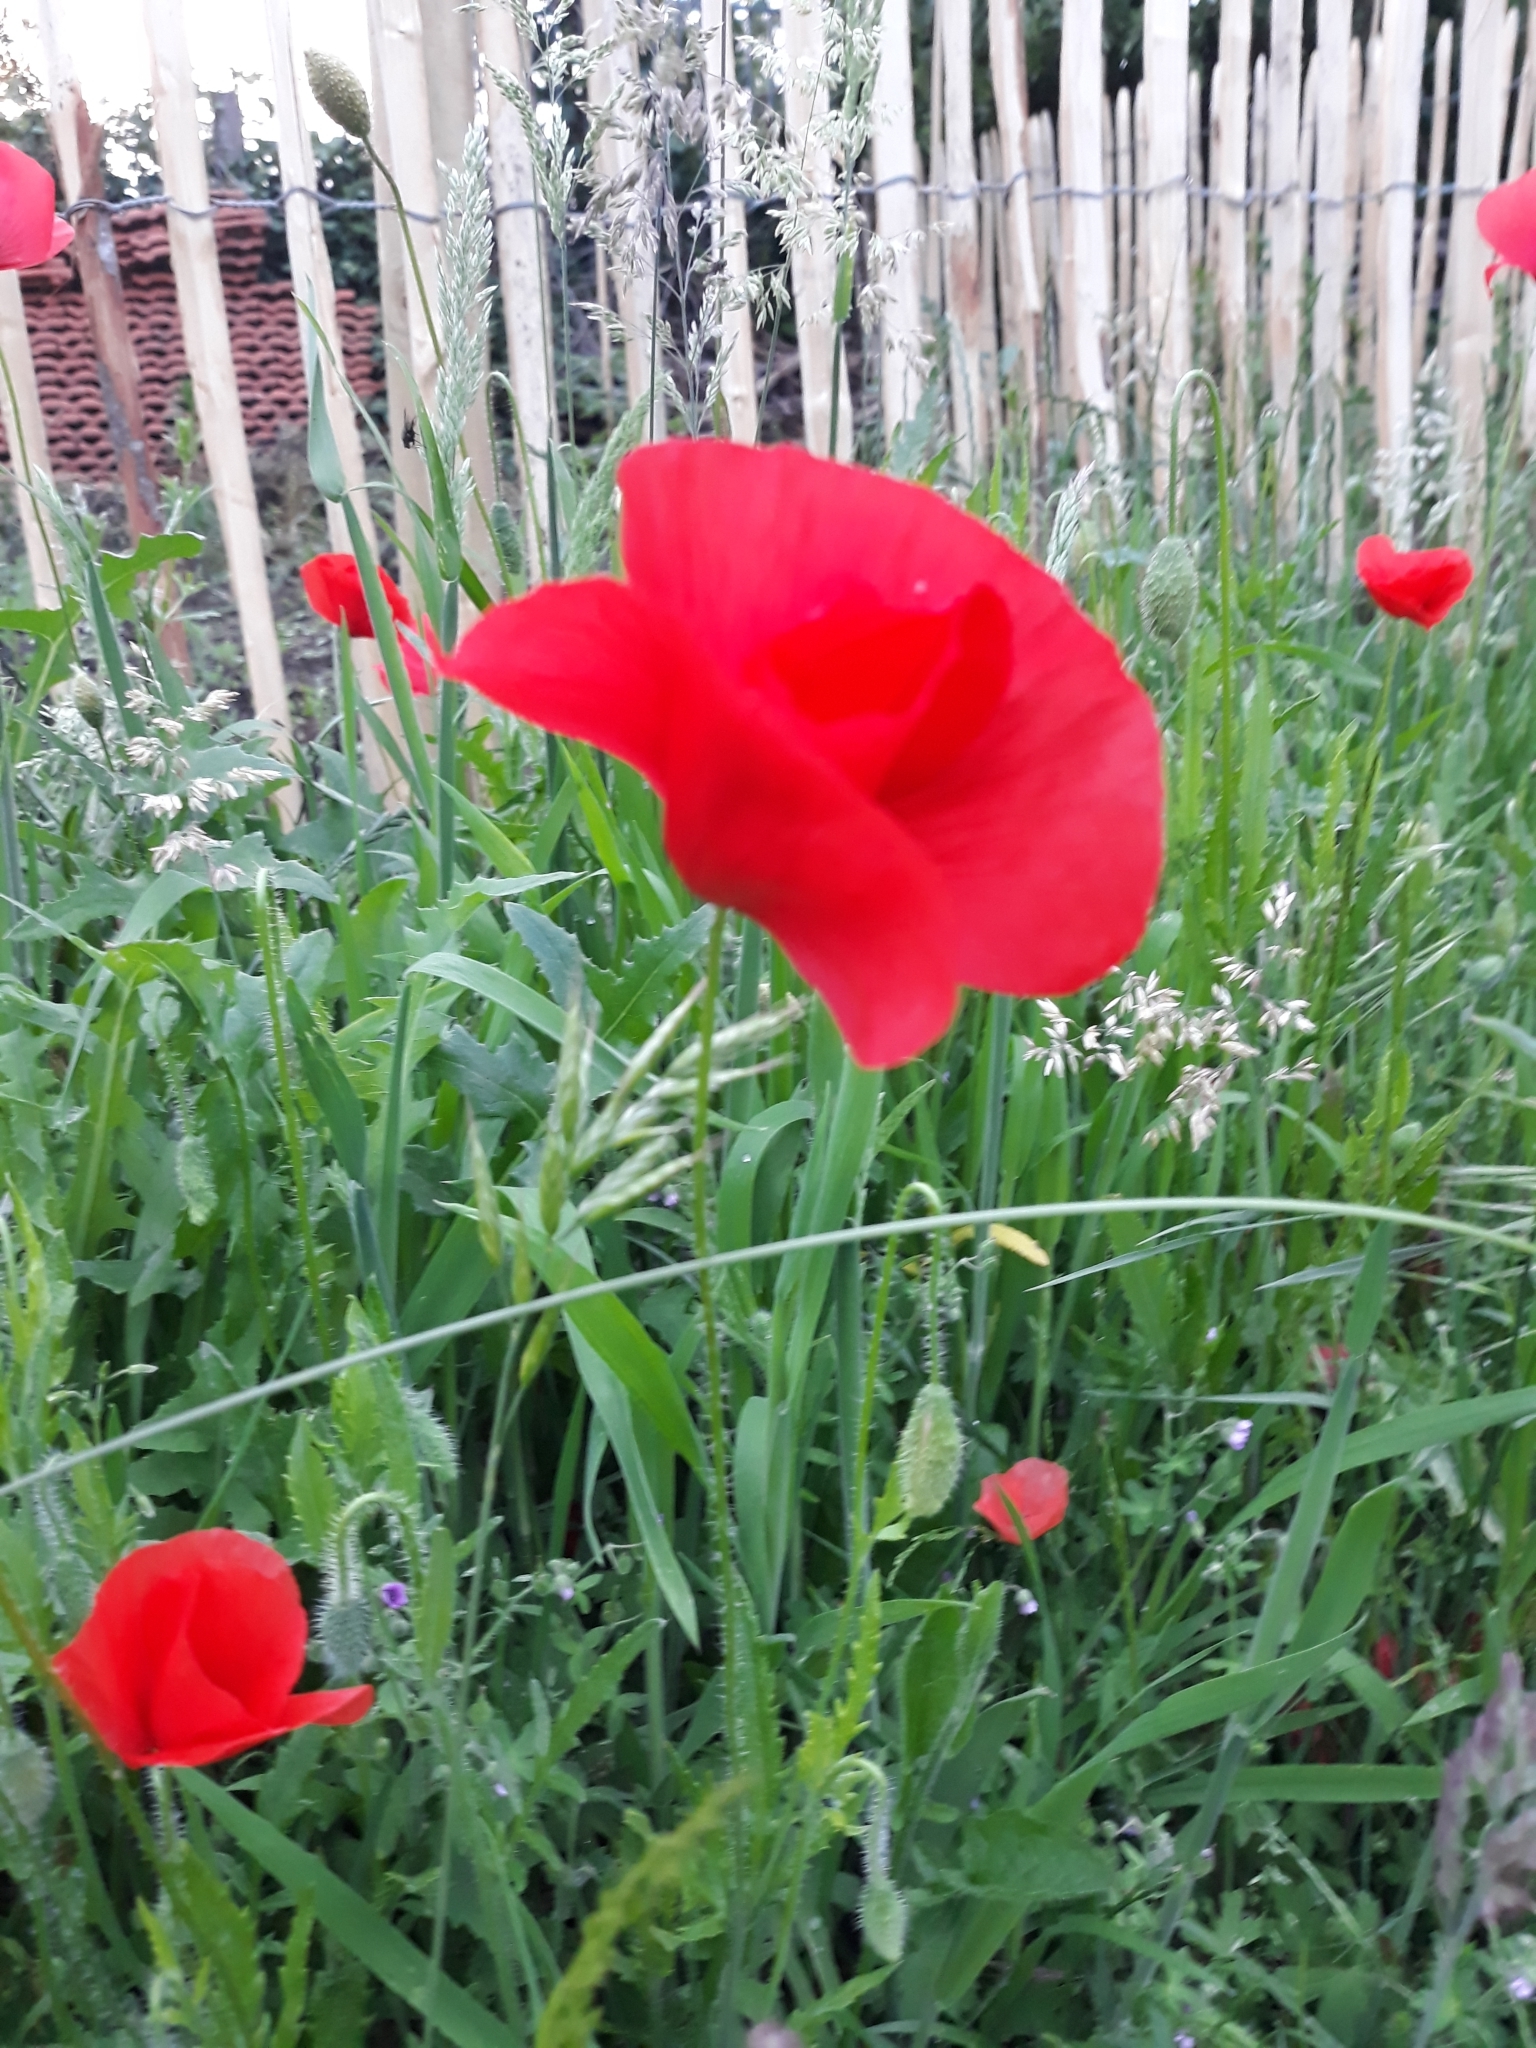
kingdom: Plantae
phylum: Tracheophyta
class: Magnoliopsida
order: Ranunculales
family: Papaveraceae
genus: Papaver
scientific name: Papaver rhoeas
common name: Corn poppy
